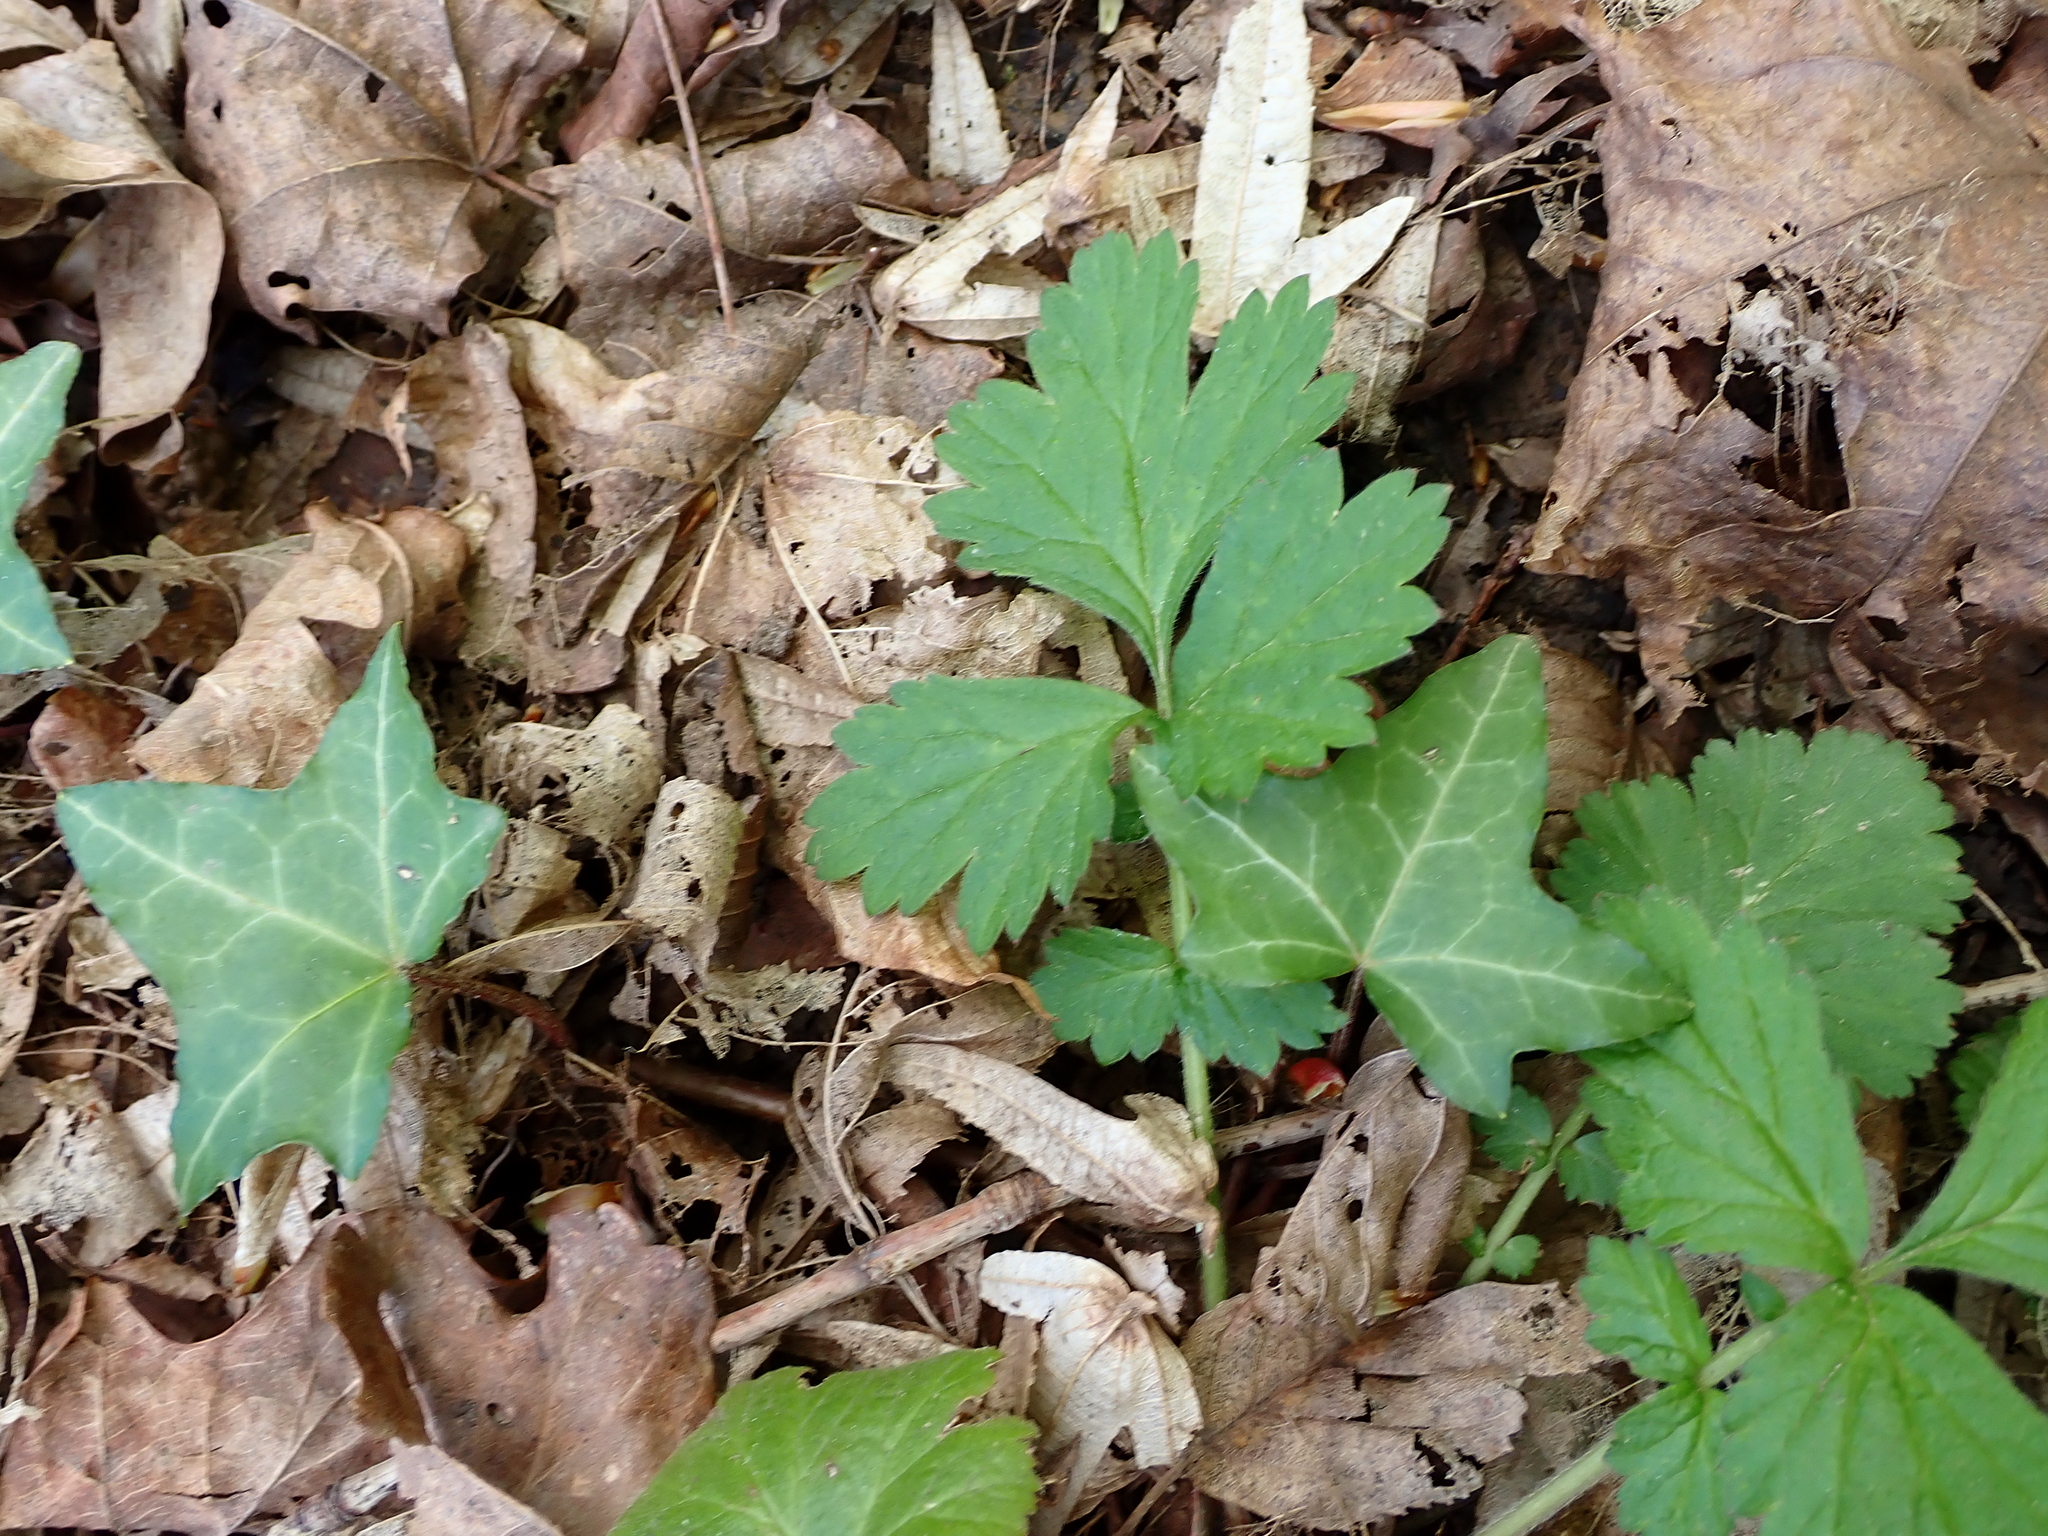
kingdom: Plantae
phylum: Tracheophyta
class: Magnoliopsida
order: Rosales
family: Rosaceae
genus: Geum
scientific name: Geum urbanum
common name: Wood avens
